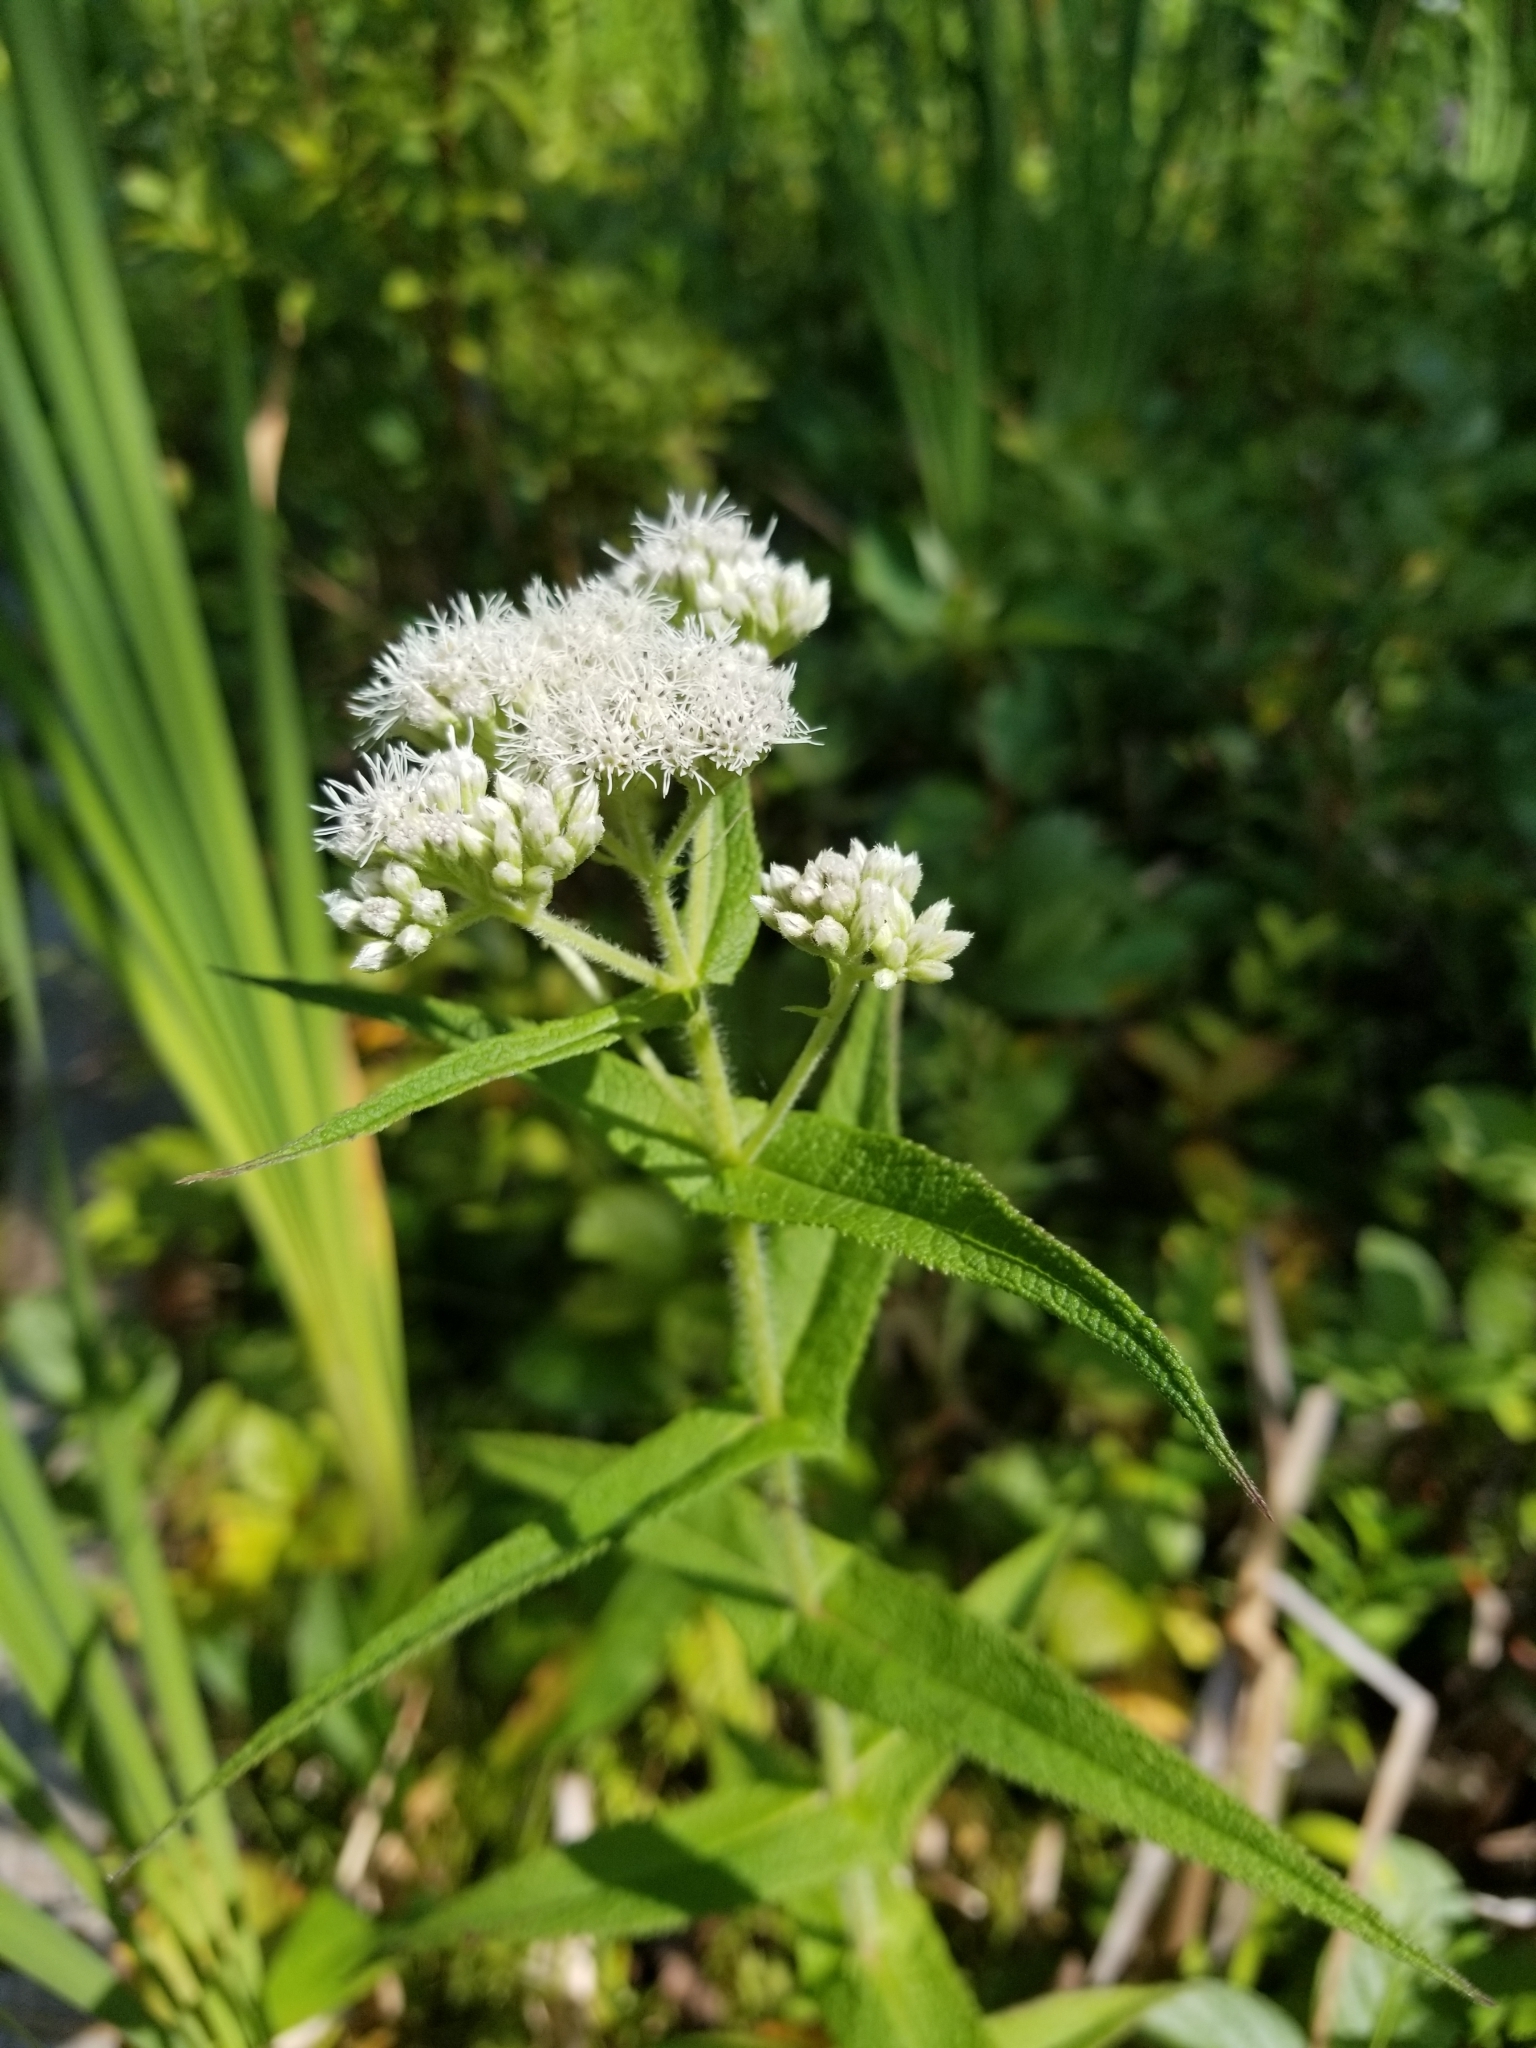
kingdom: Plantae
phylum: Tracheophyta
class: Magnoliopsida
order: Asterales
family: Asteraceae
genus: Eupatorium
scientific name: Eupatorium perfoliatum
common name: Boneset
